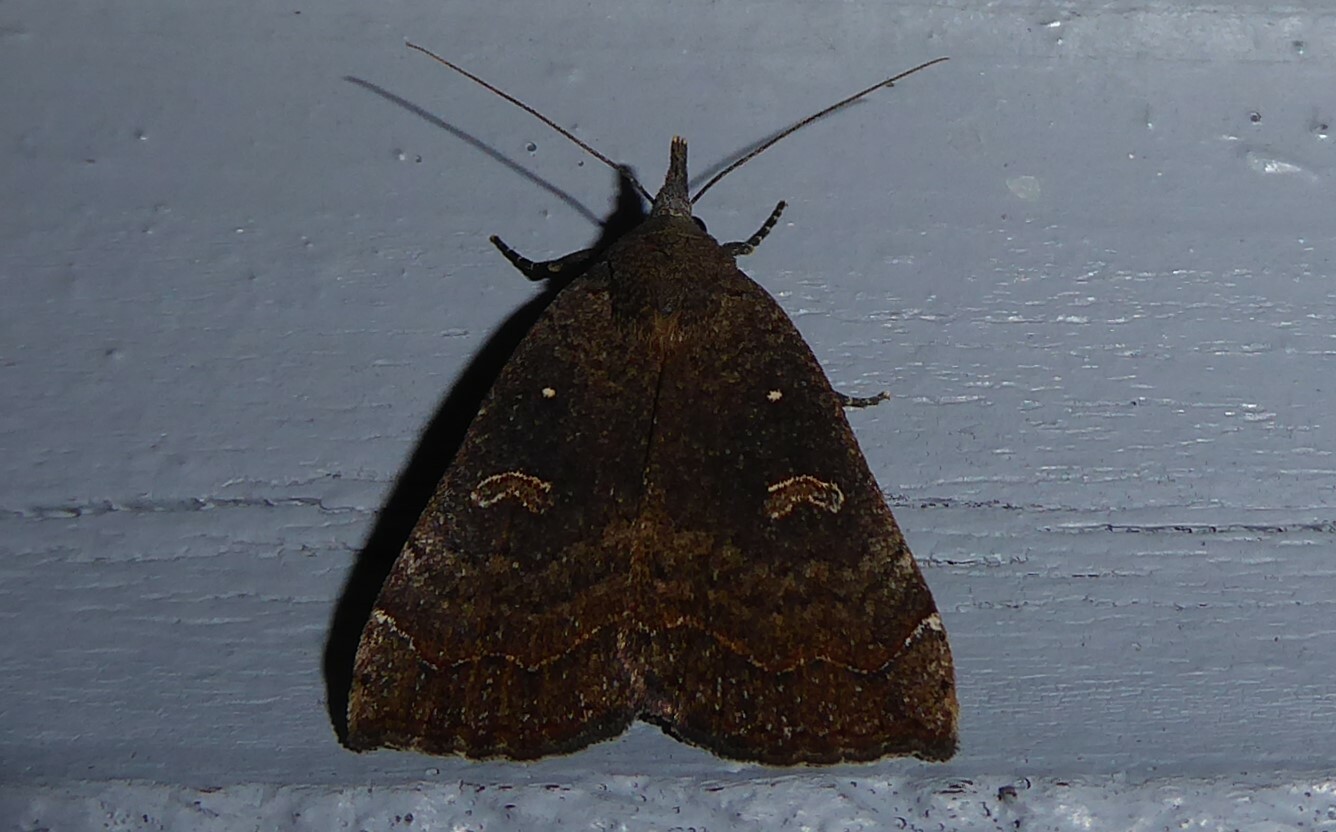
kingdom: Animalia
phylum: Arthropoda
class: Insecta
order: Lepidoptera
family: Erebidae
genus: Rhapsa
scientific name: Rhapsa scotosialis
